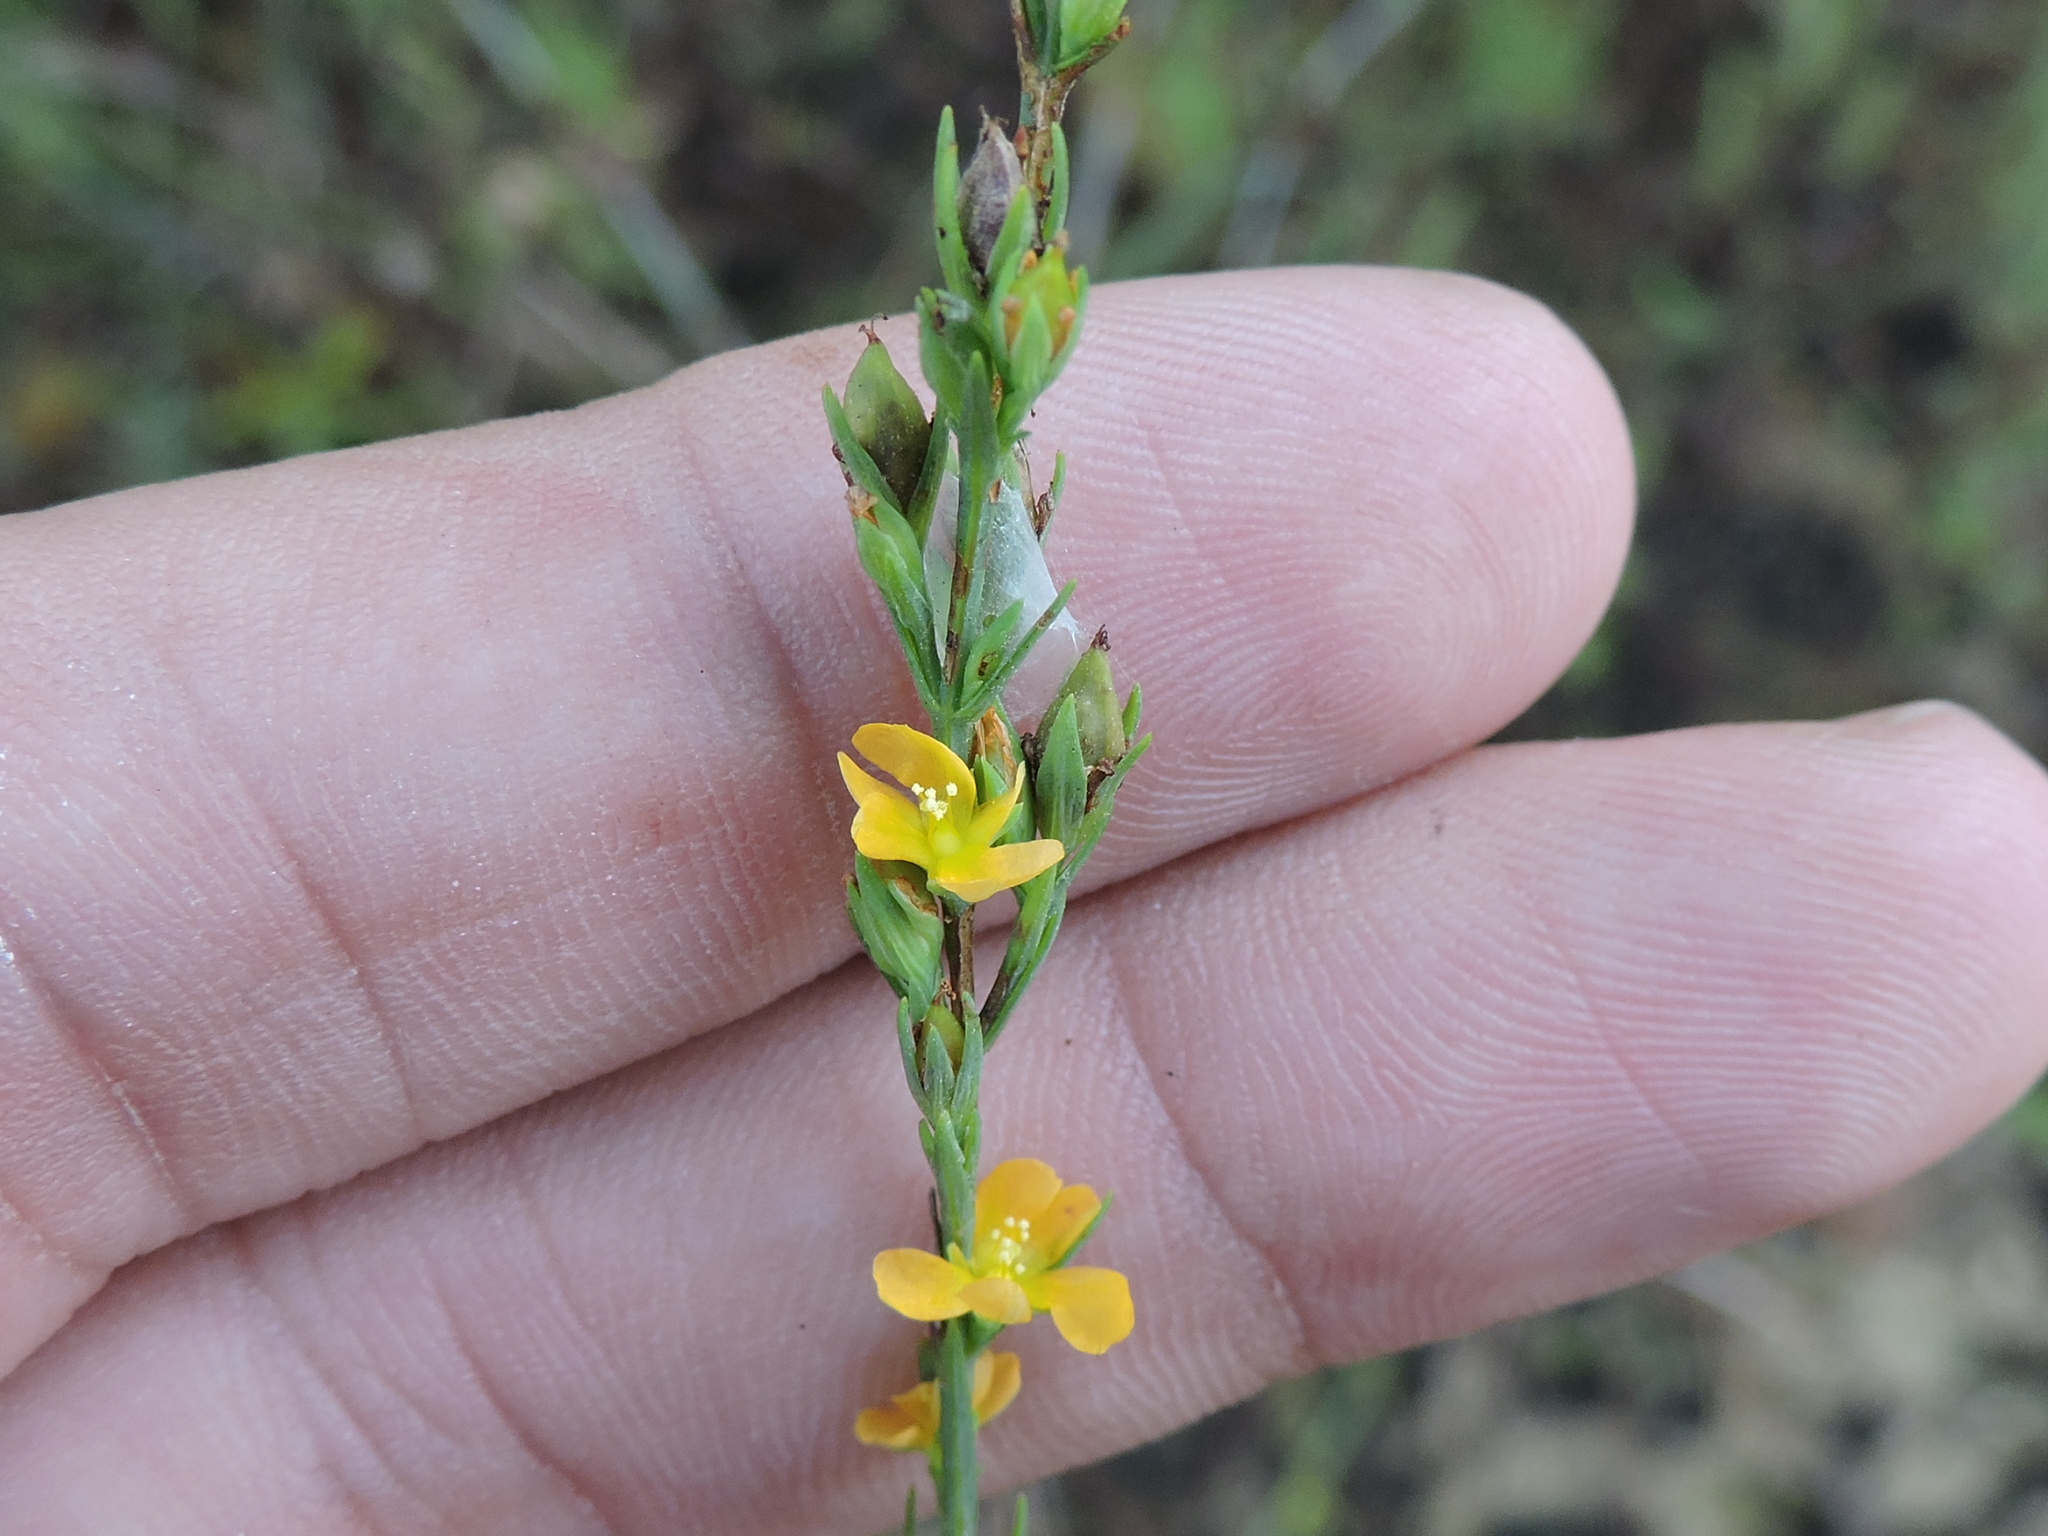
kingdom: Plantae
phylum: Tracheophyta
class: Magnoliopsida
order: Malpighiales
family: Hypericaceae
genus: Hypericum
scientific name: Hypericum drummondii
